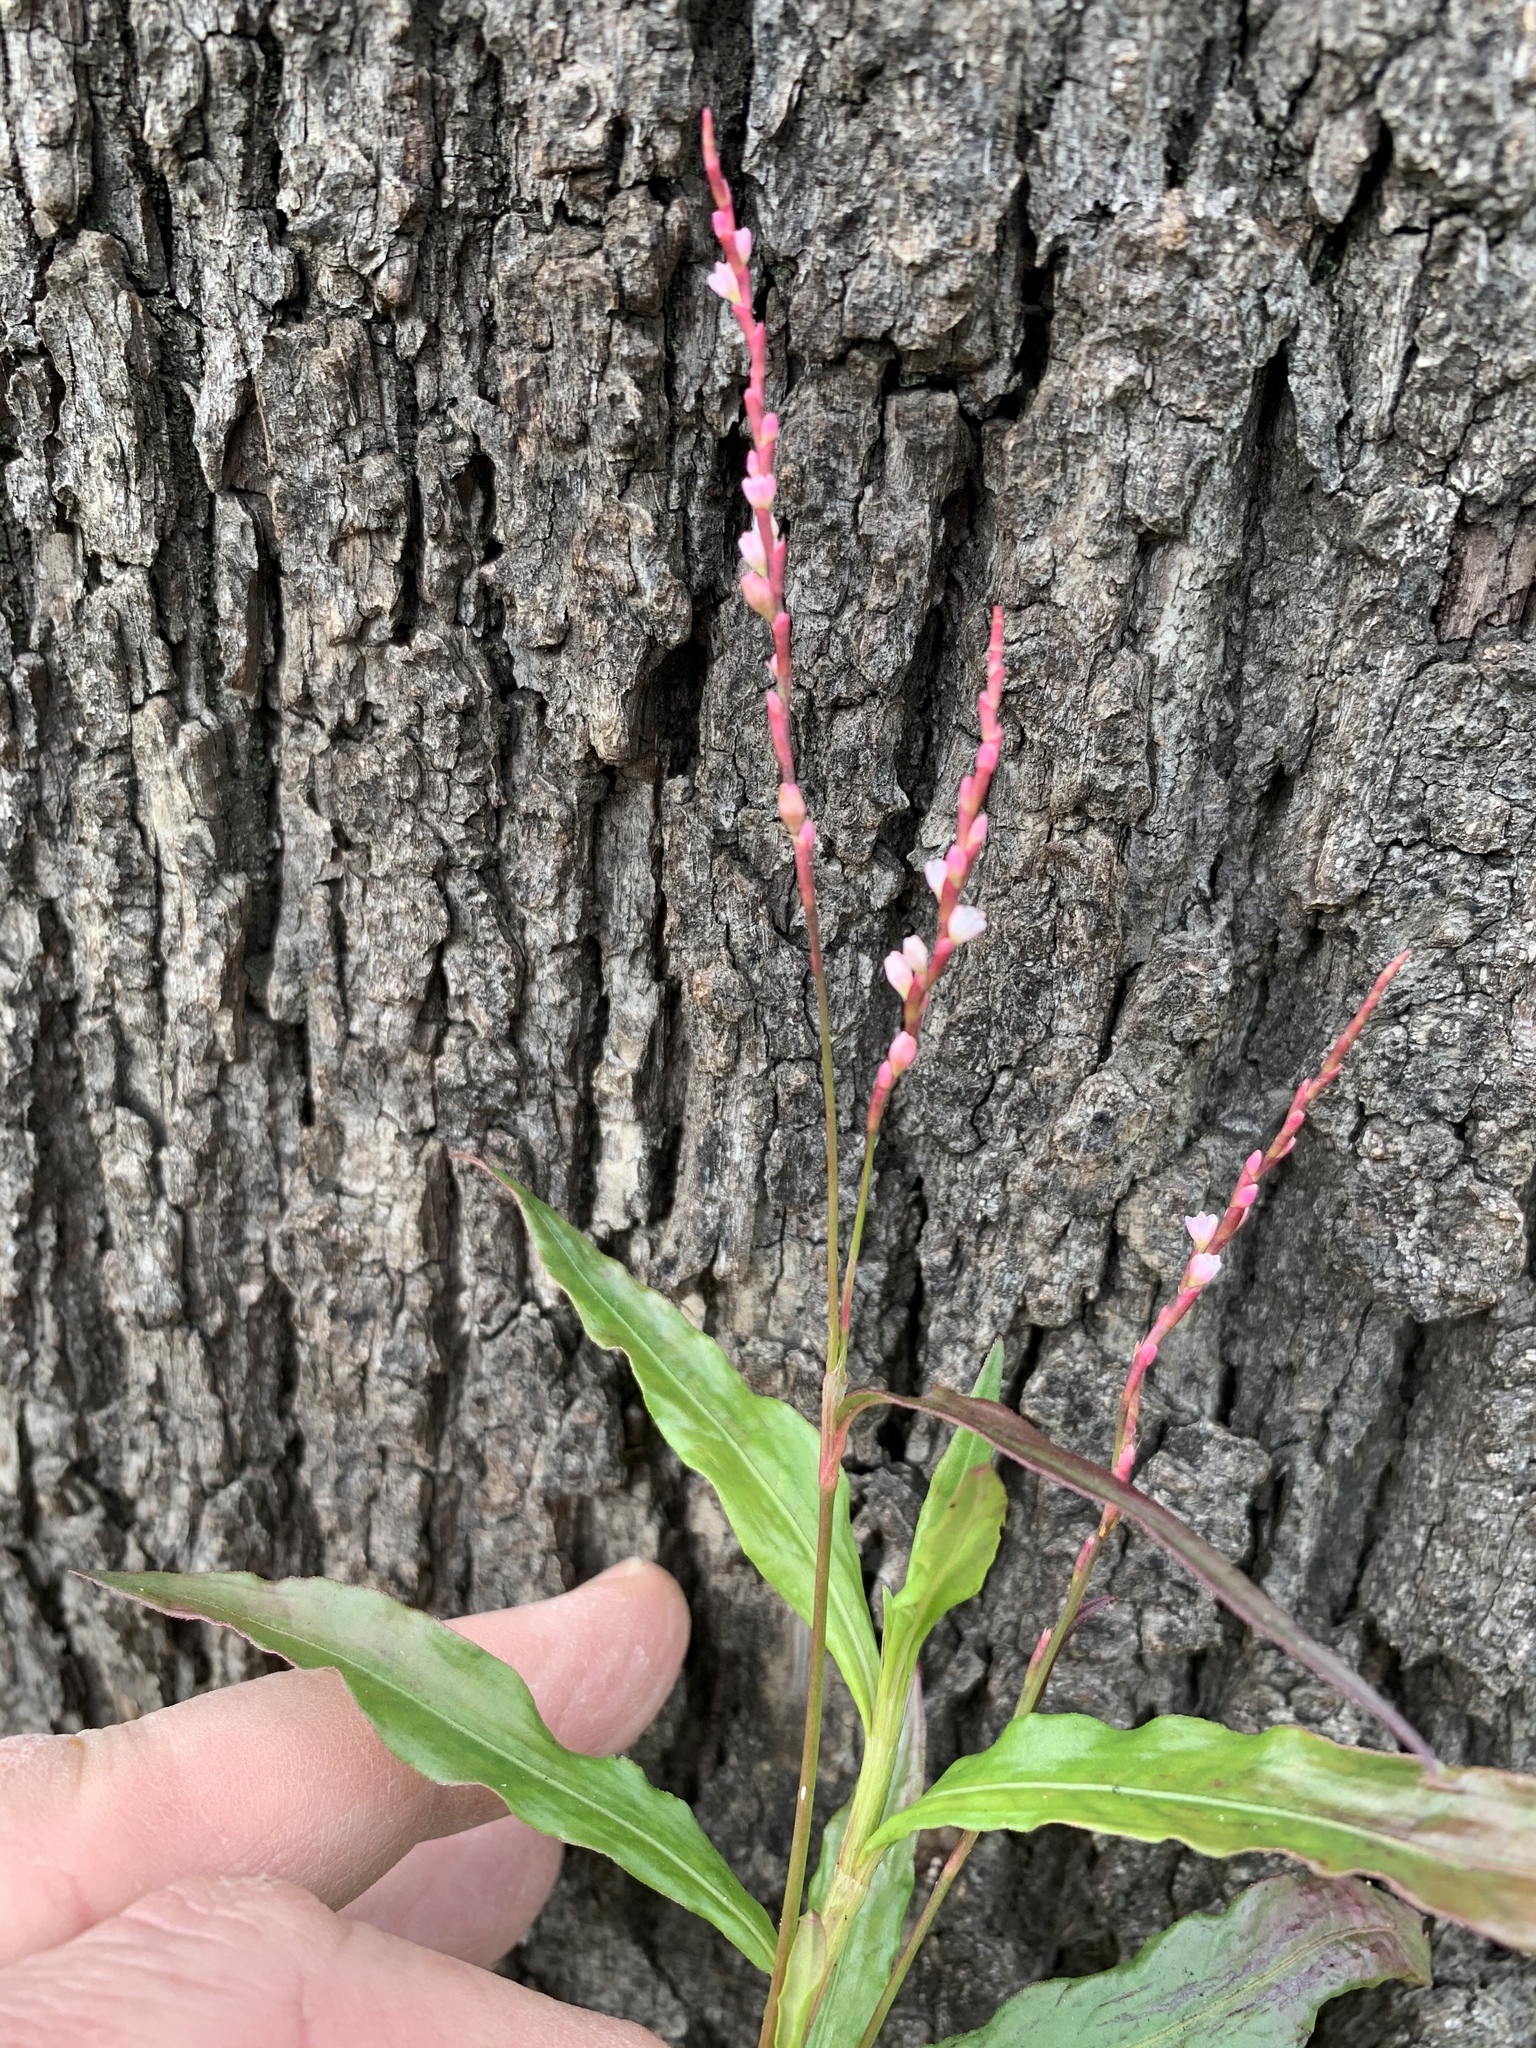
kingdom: Plantae
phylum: Tracheophyta
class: Magnoliopsida
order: Caryophyllales
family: Polygonaceae
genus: Persicaria
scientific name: Persicaria decipiens
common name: Willow-weed
